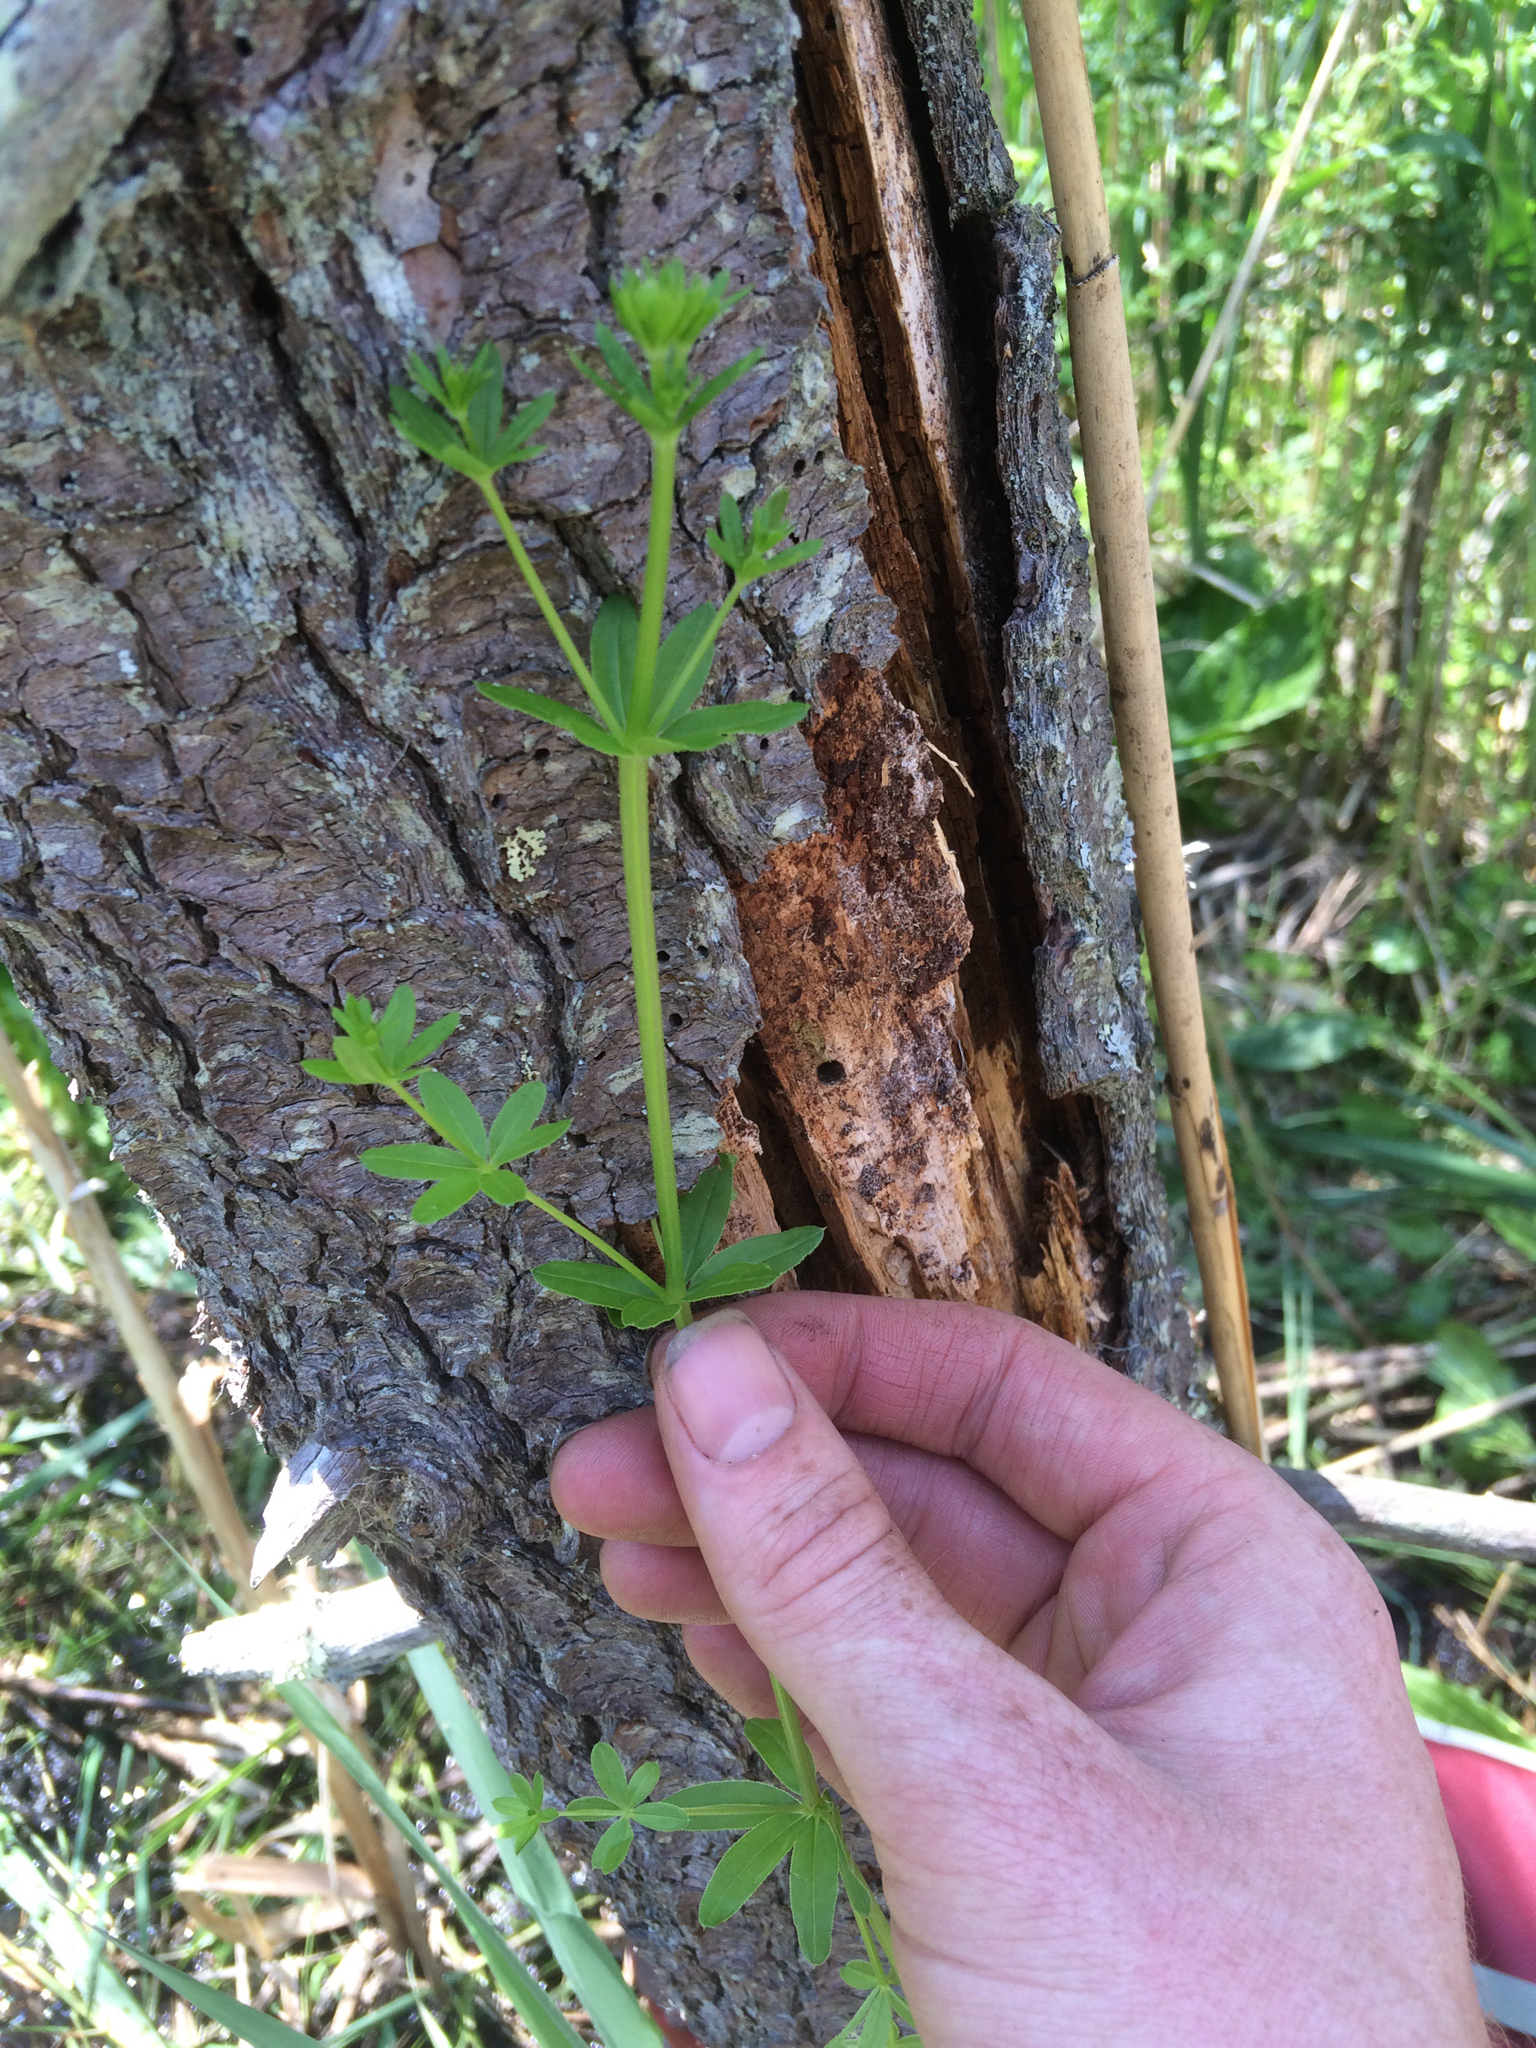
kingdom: Plantae
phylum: Tracheophyta
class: Magnoliopsida
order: Gentianales
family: Rubiaceae
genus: Galium
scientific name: Galium mollugo
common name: Hedge bedstraw
